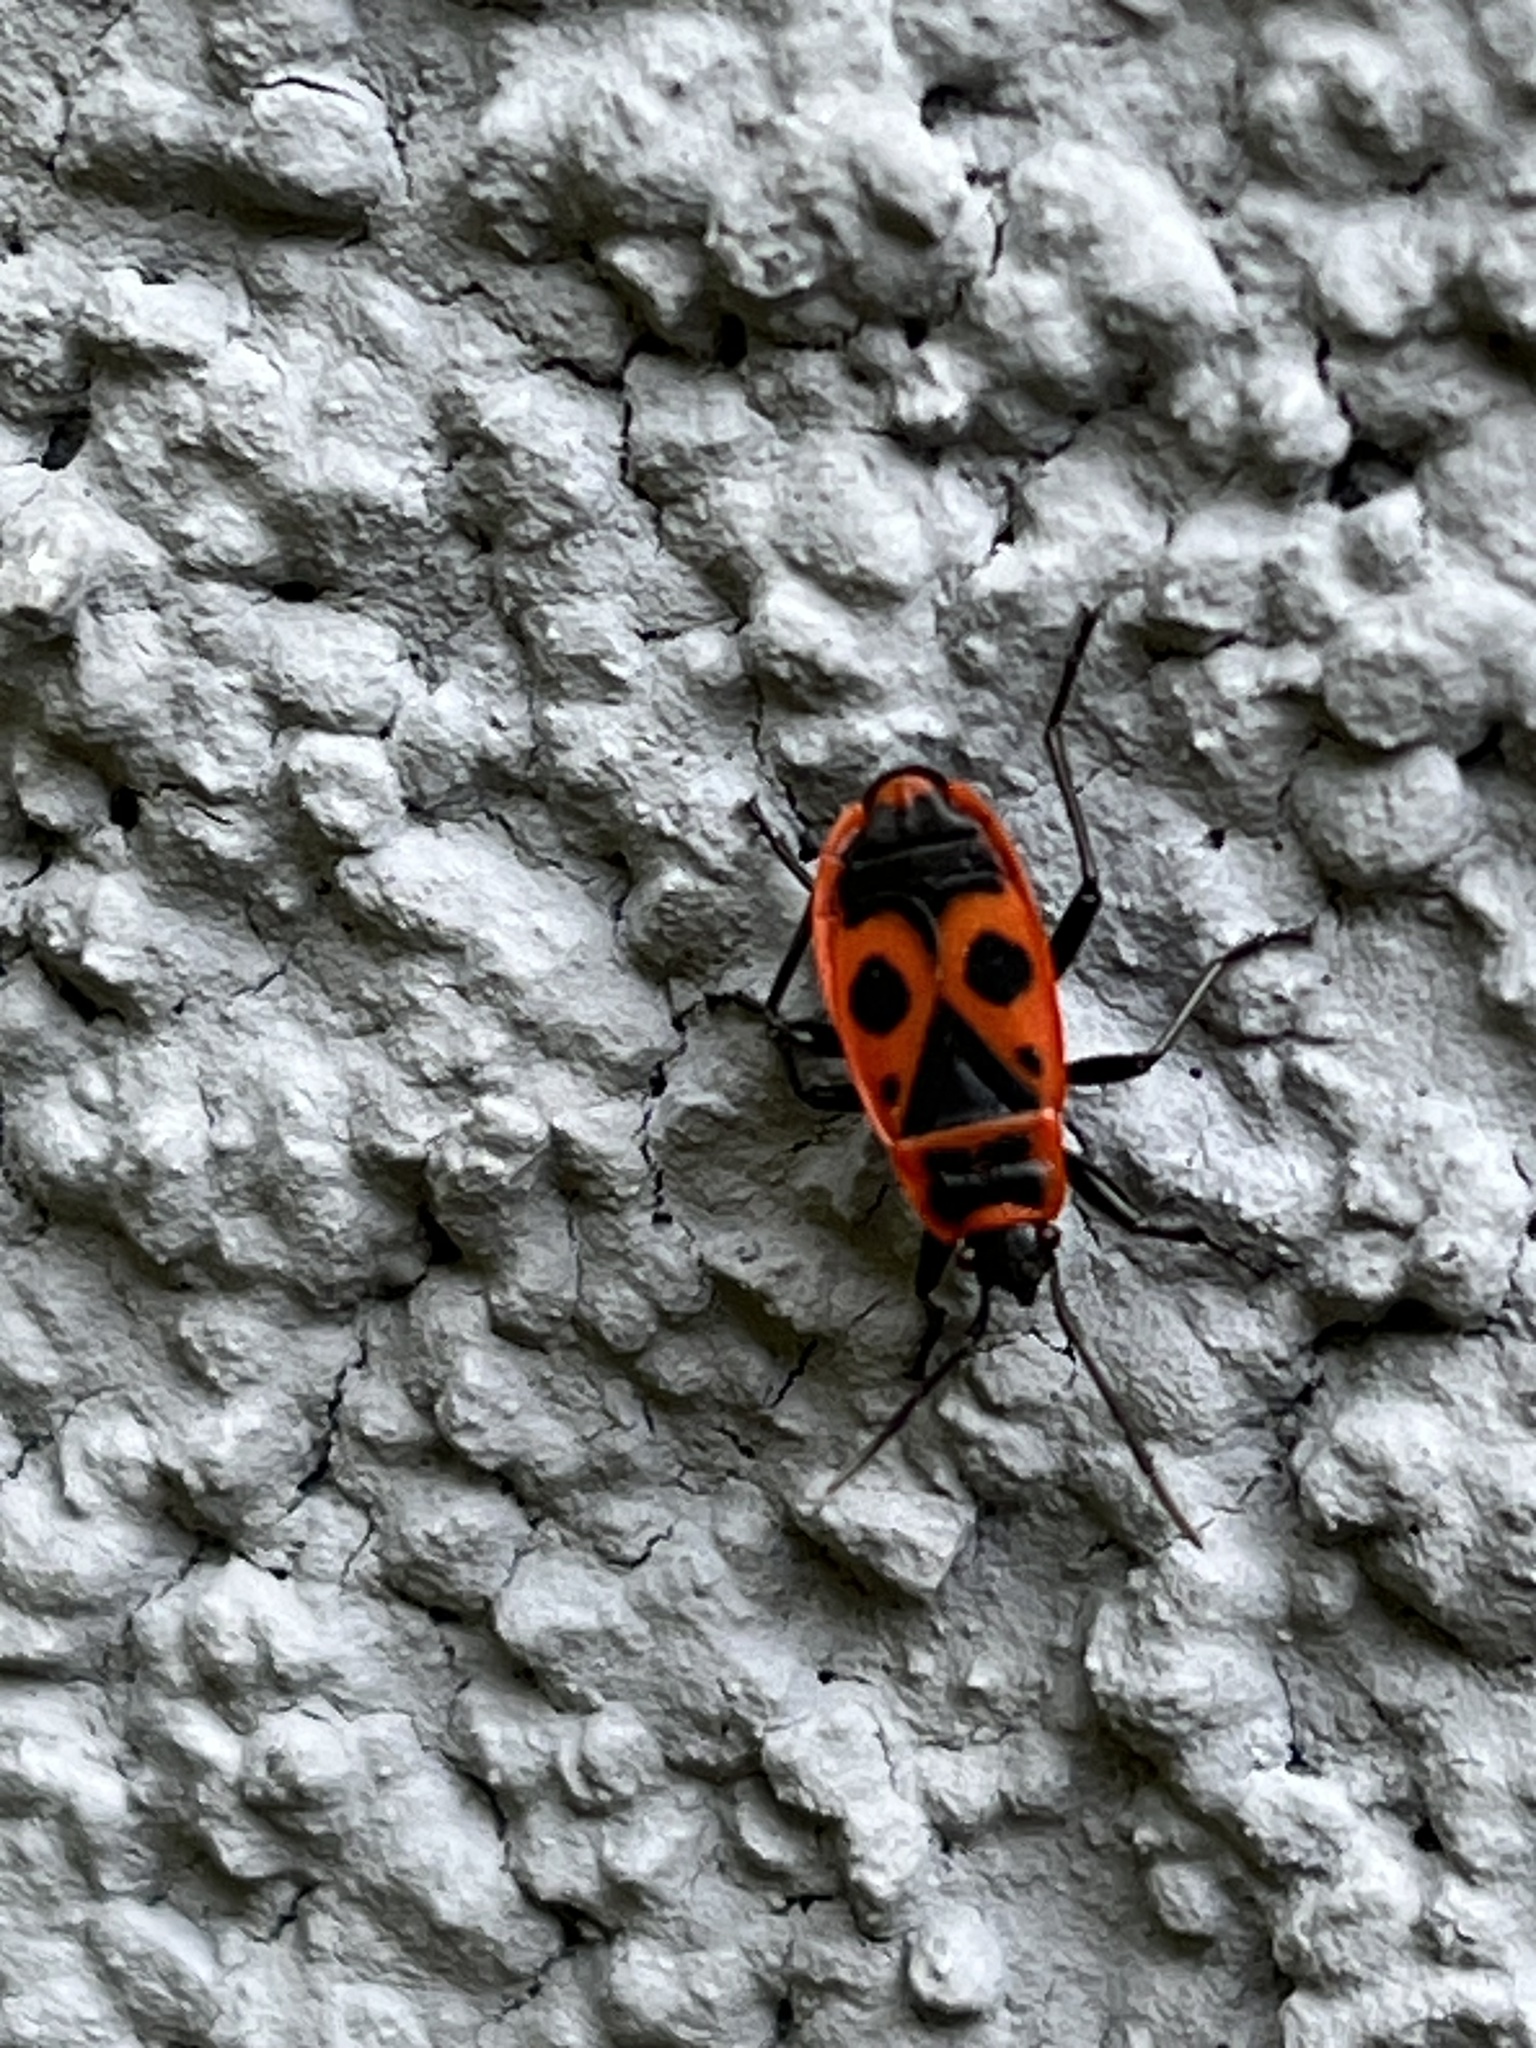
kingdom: Animalia
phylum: Arthropoda
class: Insecta
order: Hemiptera
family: Pyrrhocoridae
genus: Pyrrhocoris
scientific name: Pyrrhocoris apterus
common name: Firebug
